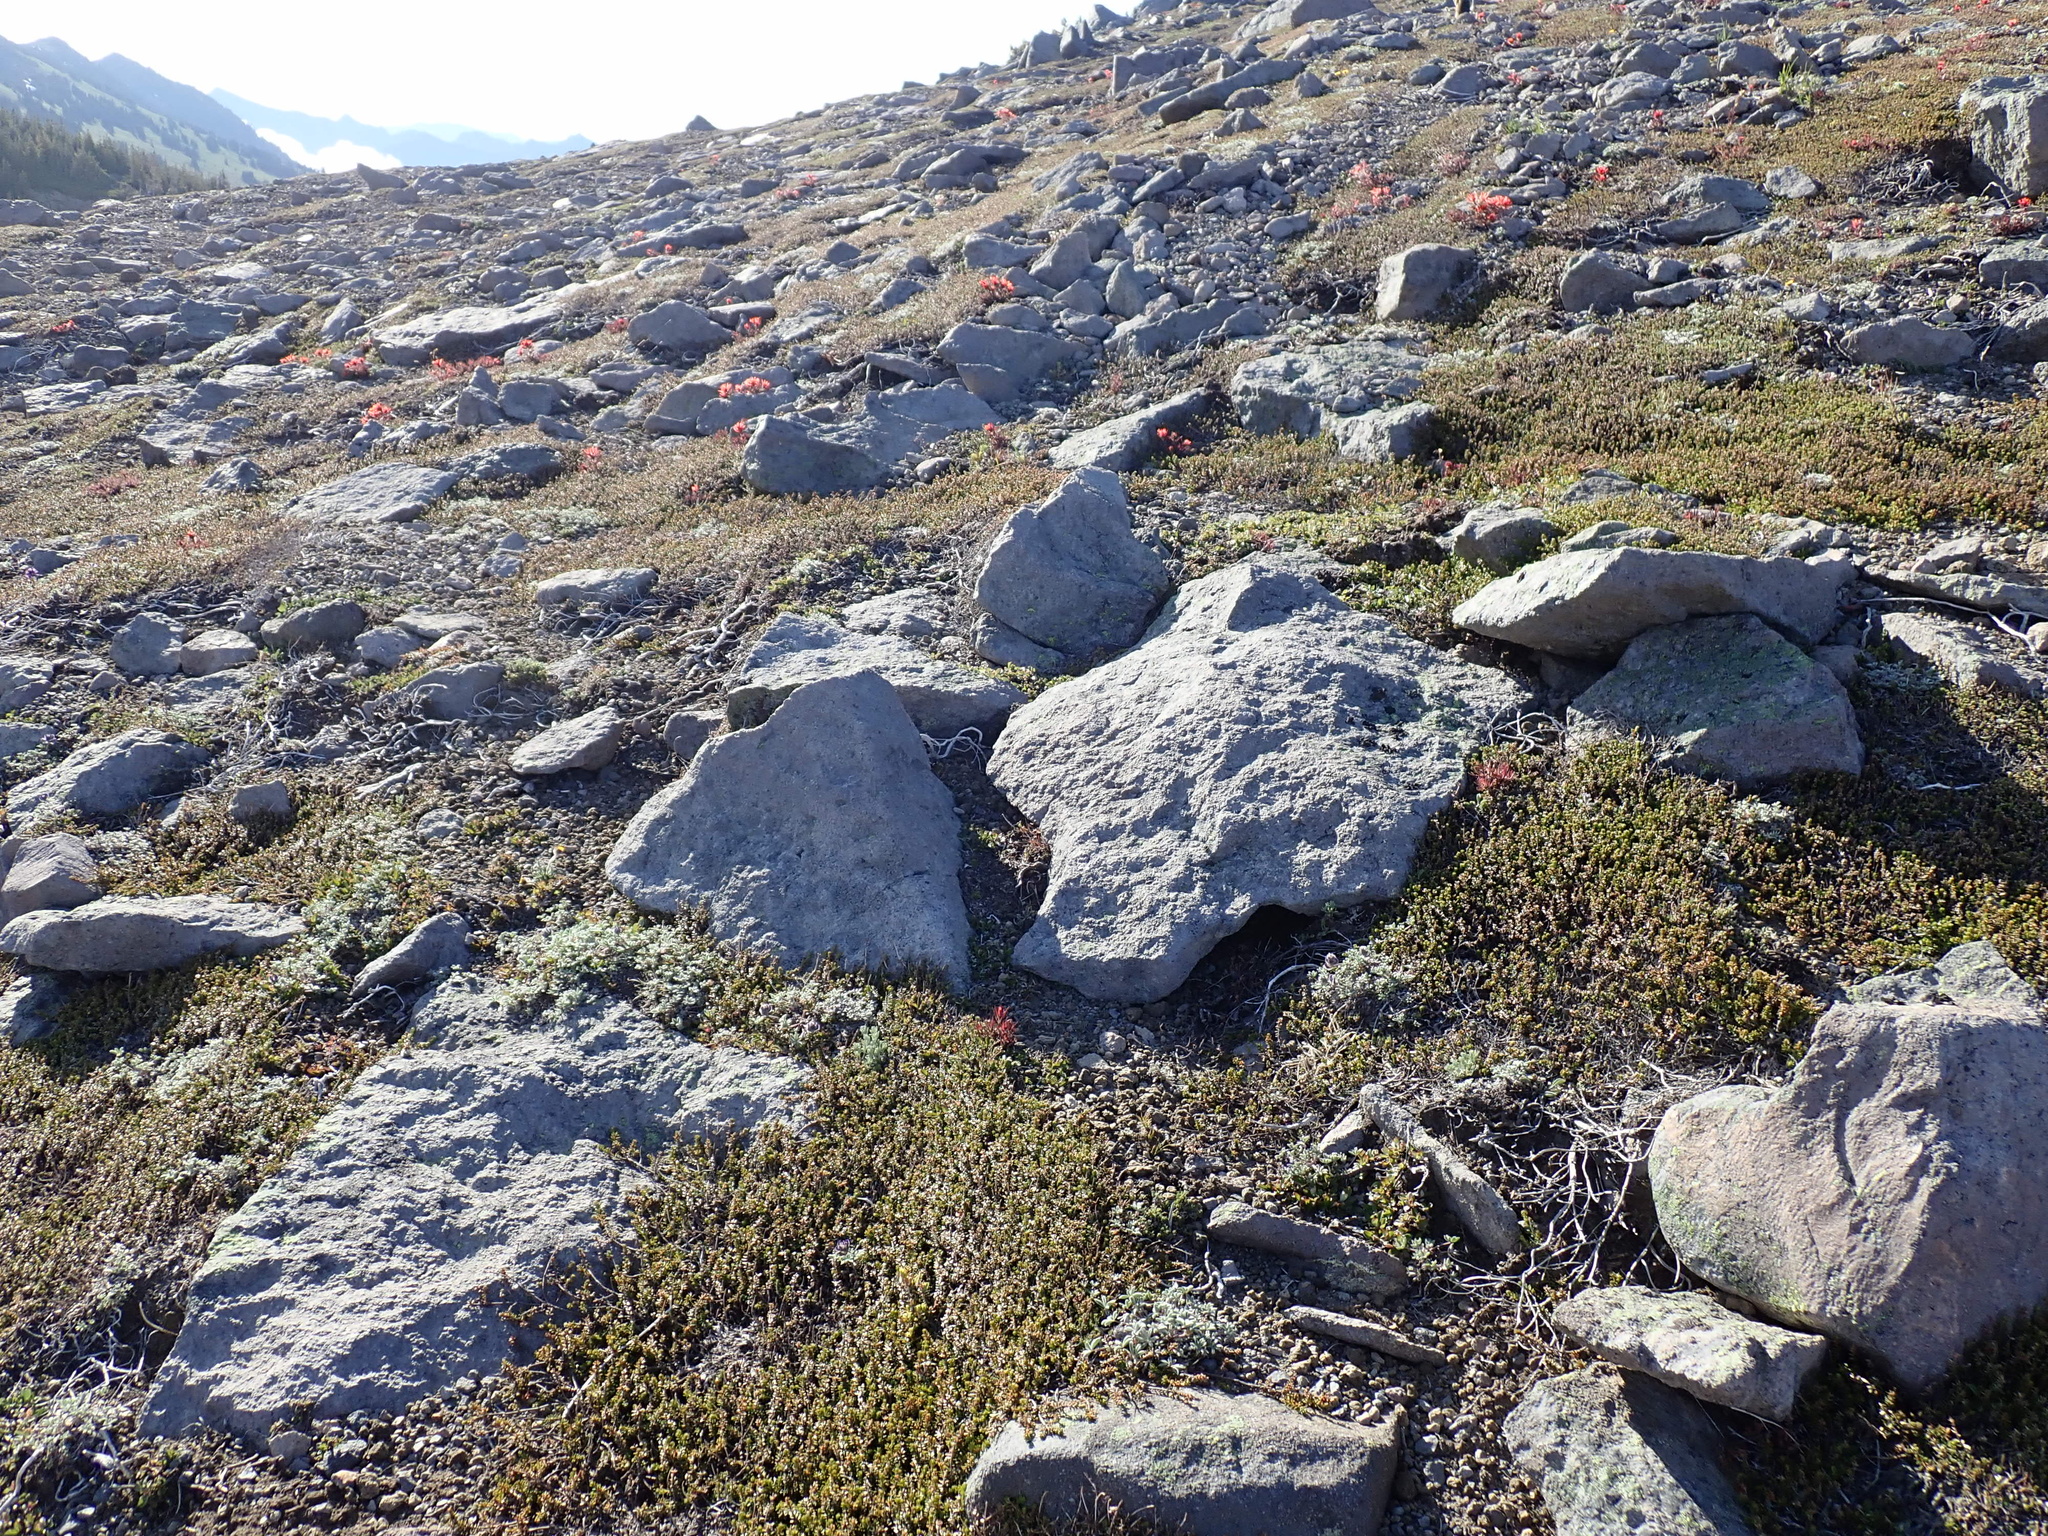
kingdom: Plantae
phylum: Tracheophyta
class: Magnoliopsida
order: Lamiales
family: Orobanchaceae
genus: Castilleja
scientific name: Castilleja rupicola
